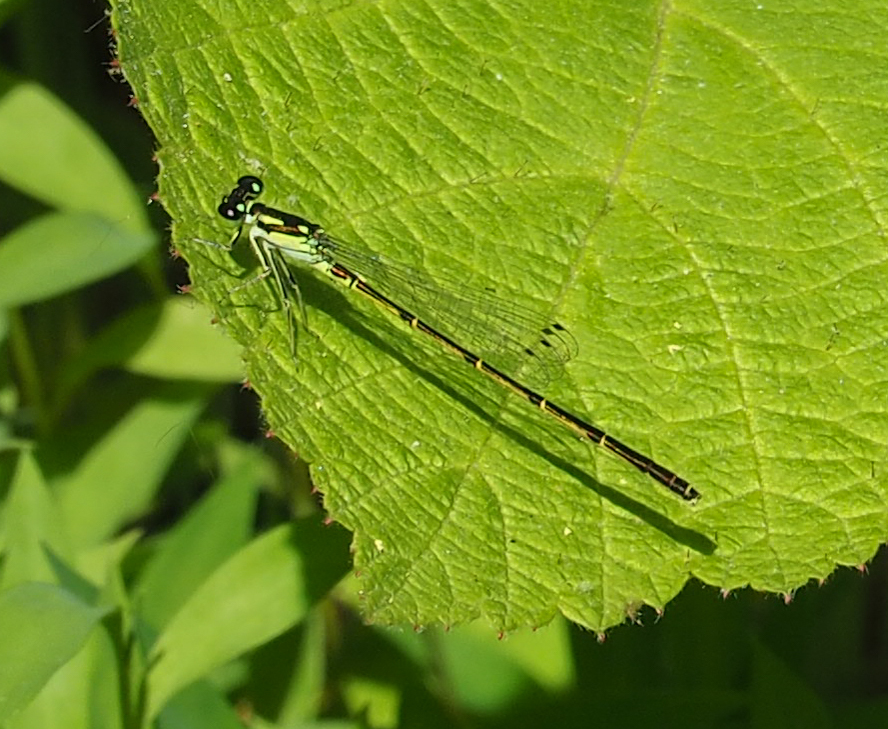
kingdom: Animalia
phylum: Arthropoda
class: Insecta
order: Odonata
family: Coenagrionidae
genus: Ischnura
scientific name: Ischnura posita
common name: Fragile forktail
